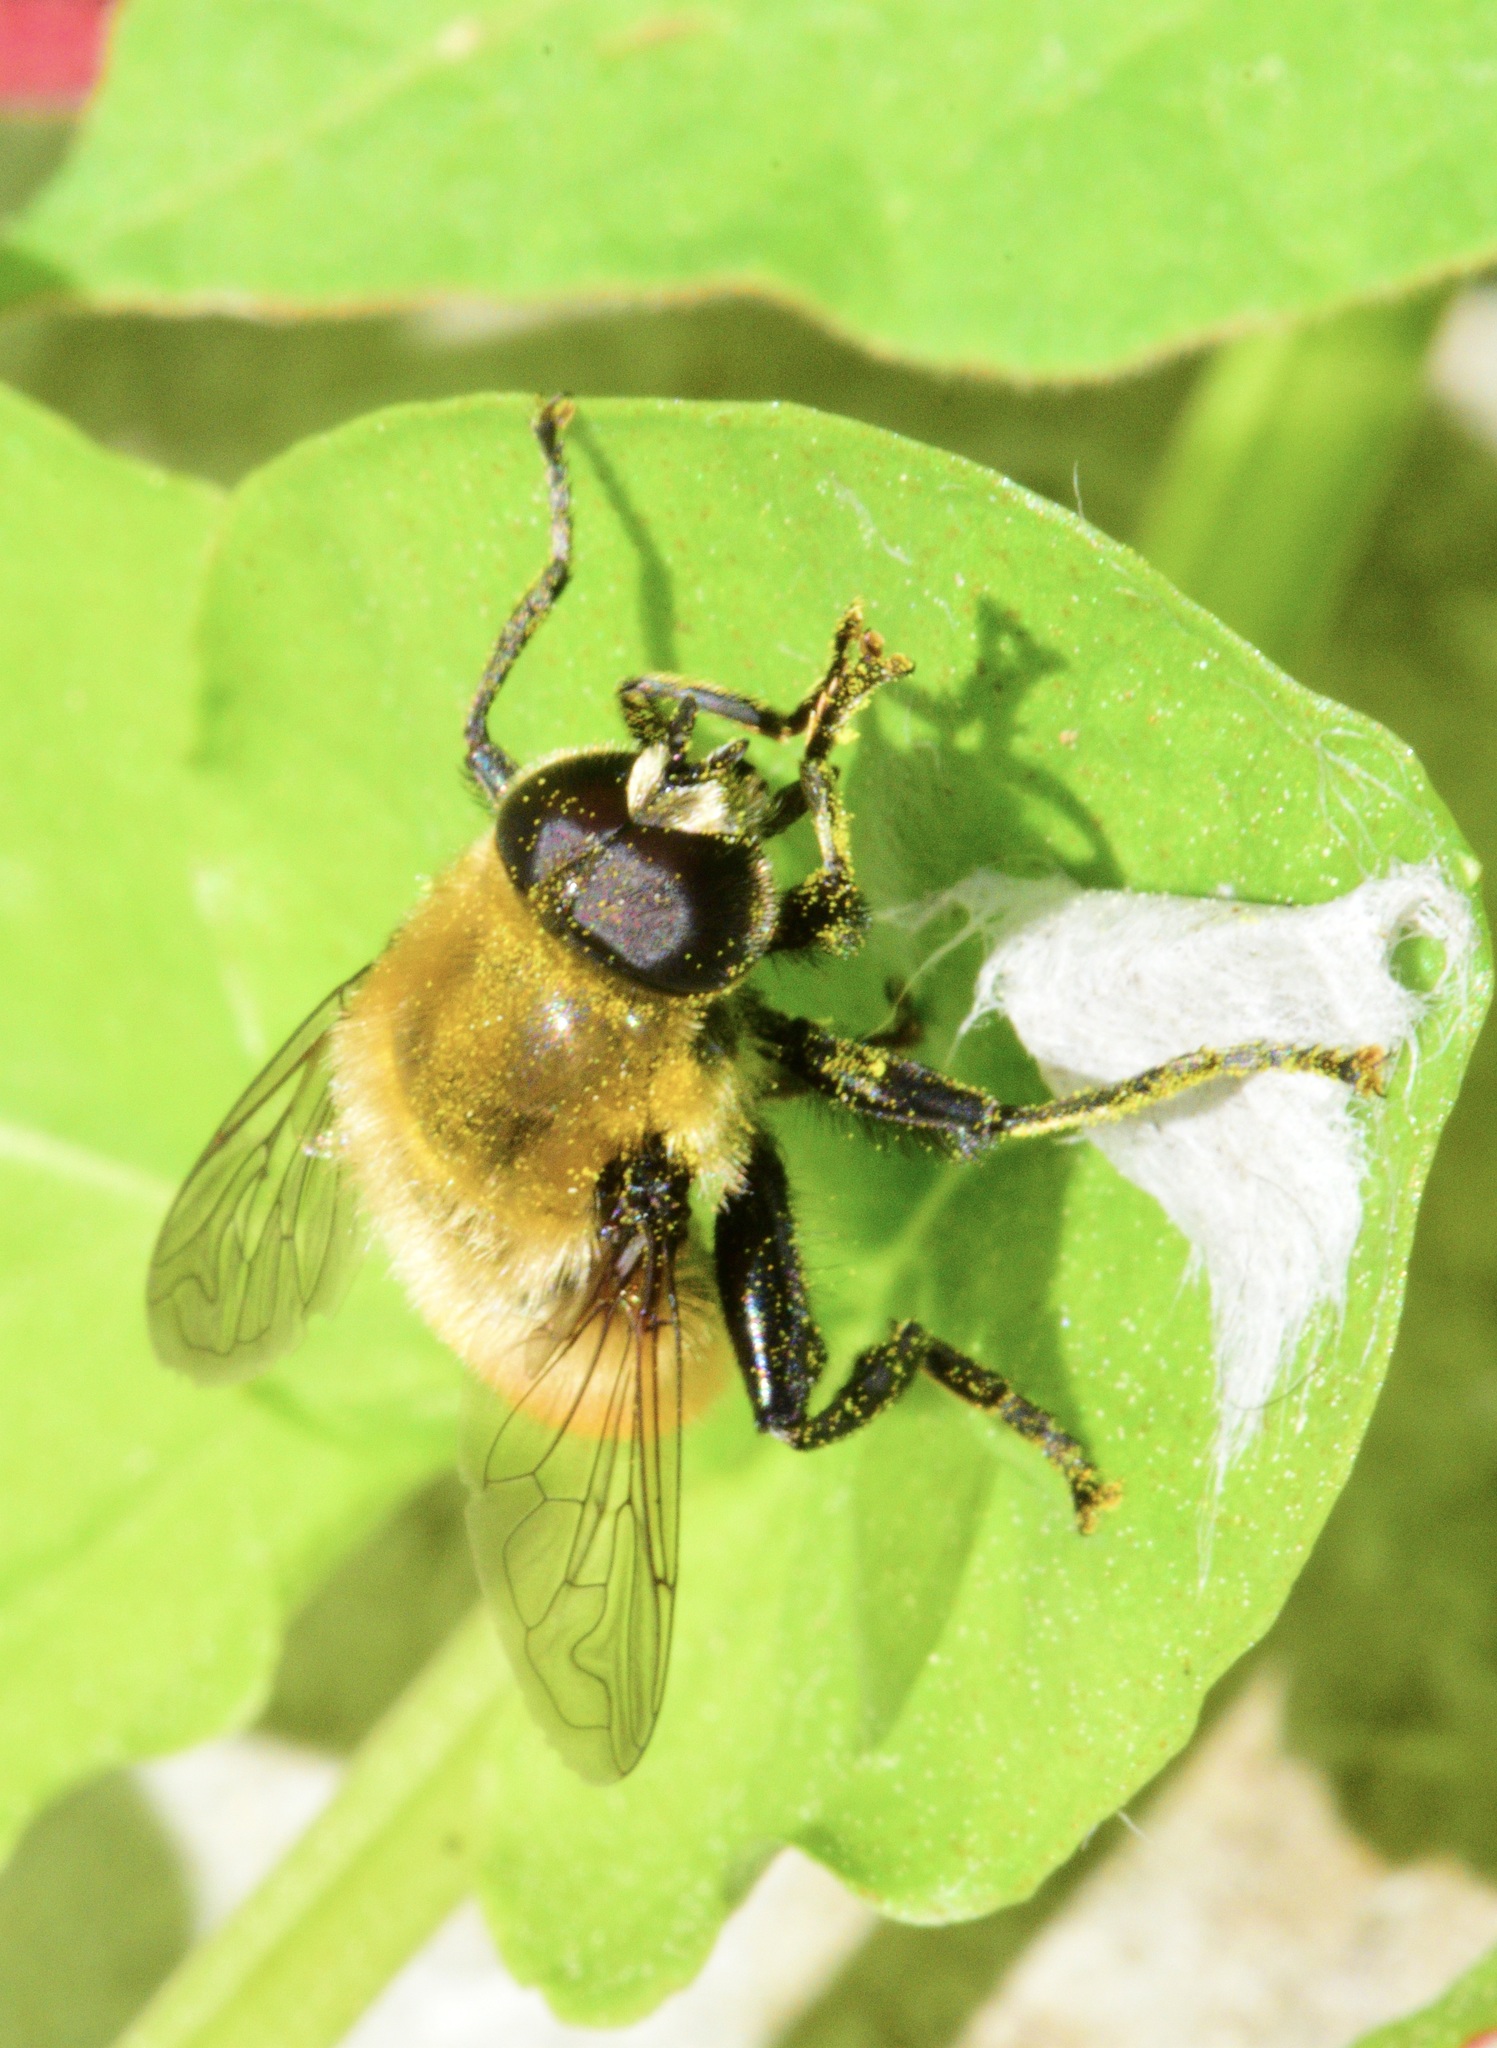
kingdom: Animalia
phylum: Arthropoda
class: Insecta
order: Diptera
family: Syrphidae
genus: Merodon
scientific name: Merodon equestris
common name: Greater bulb-fly
